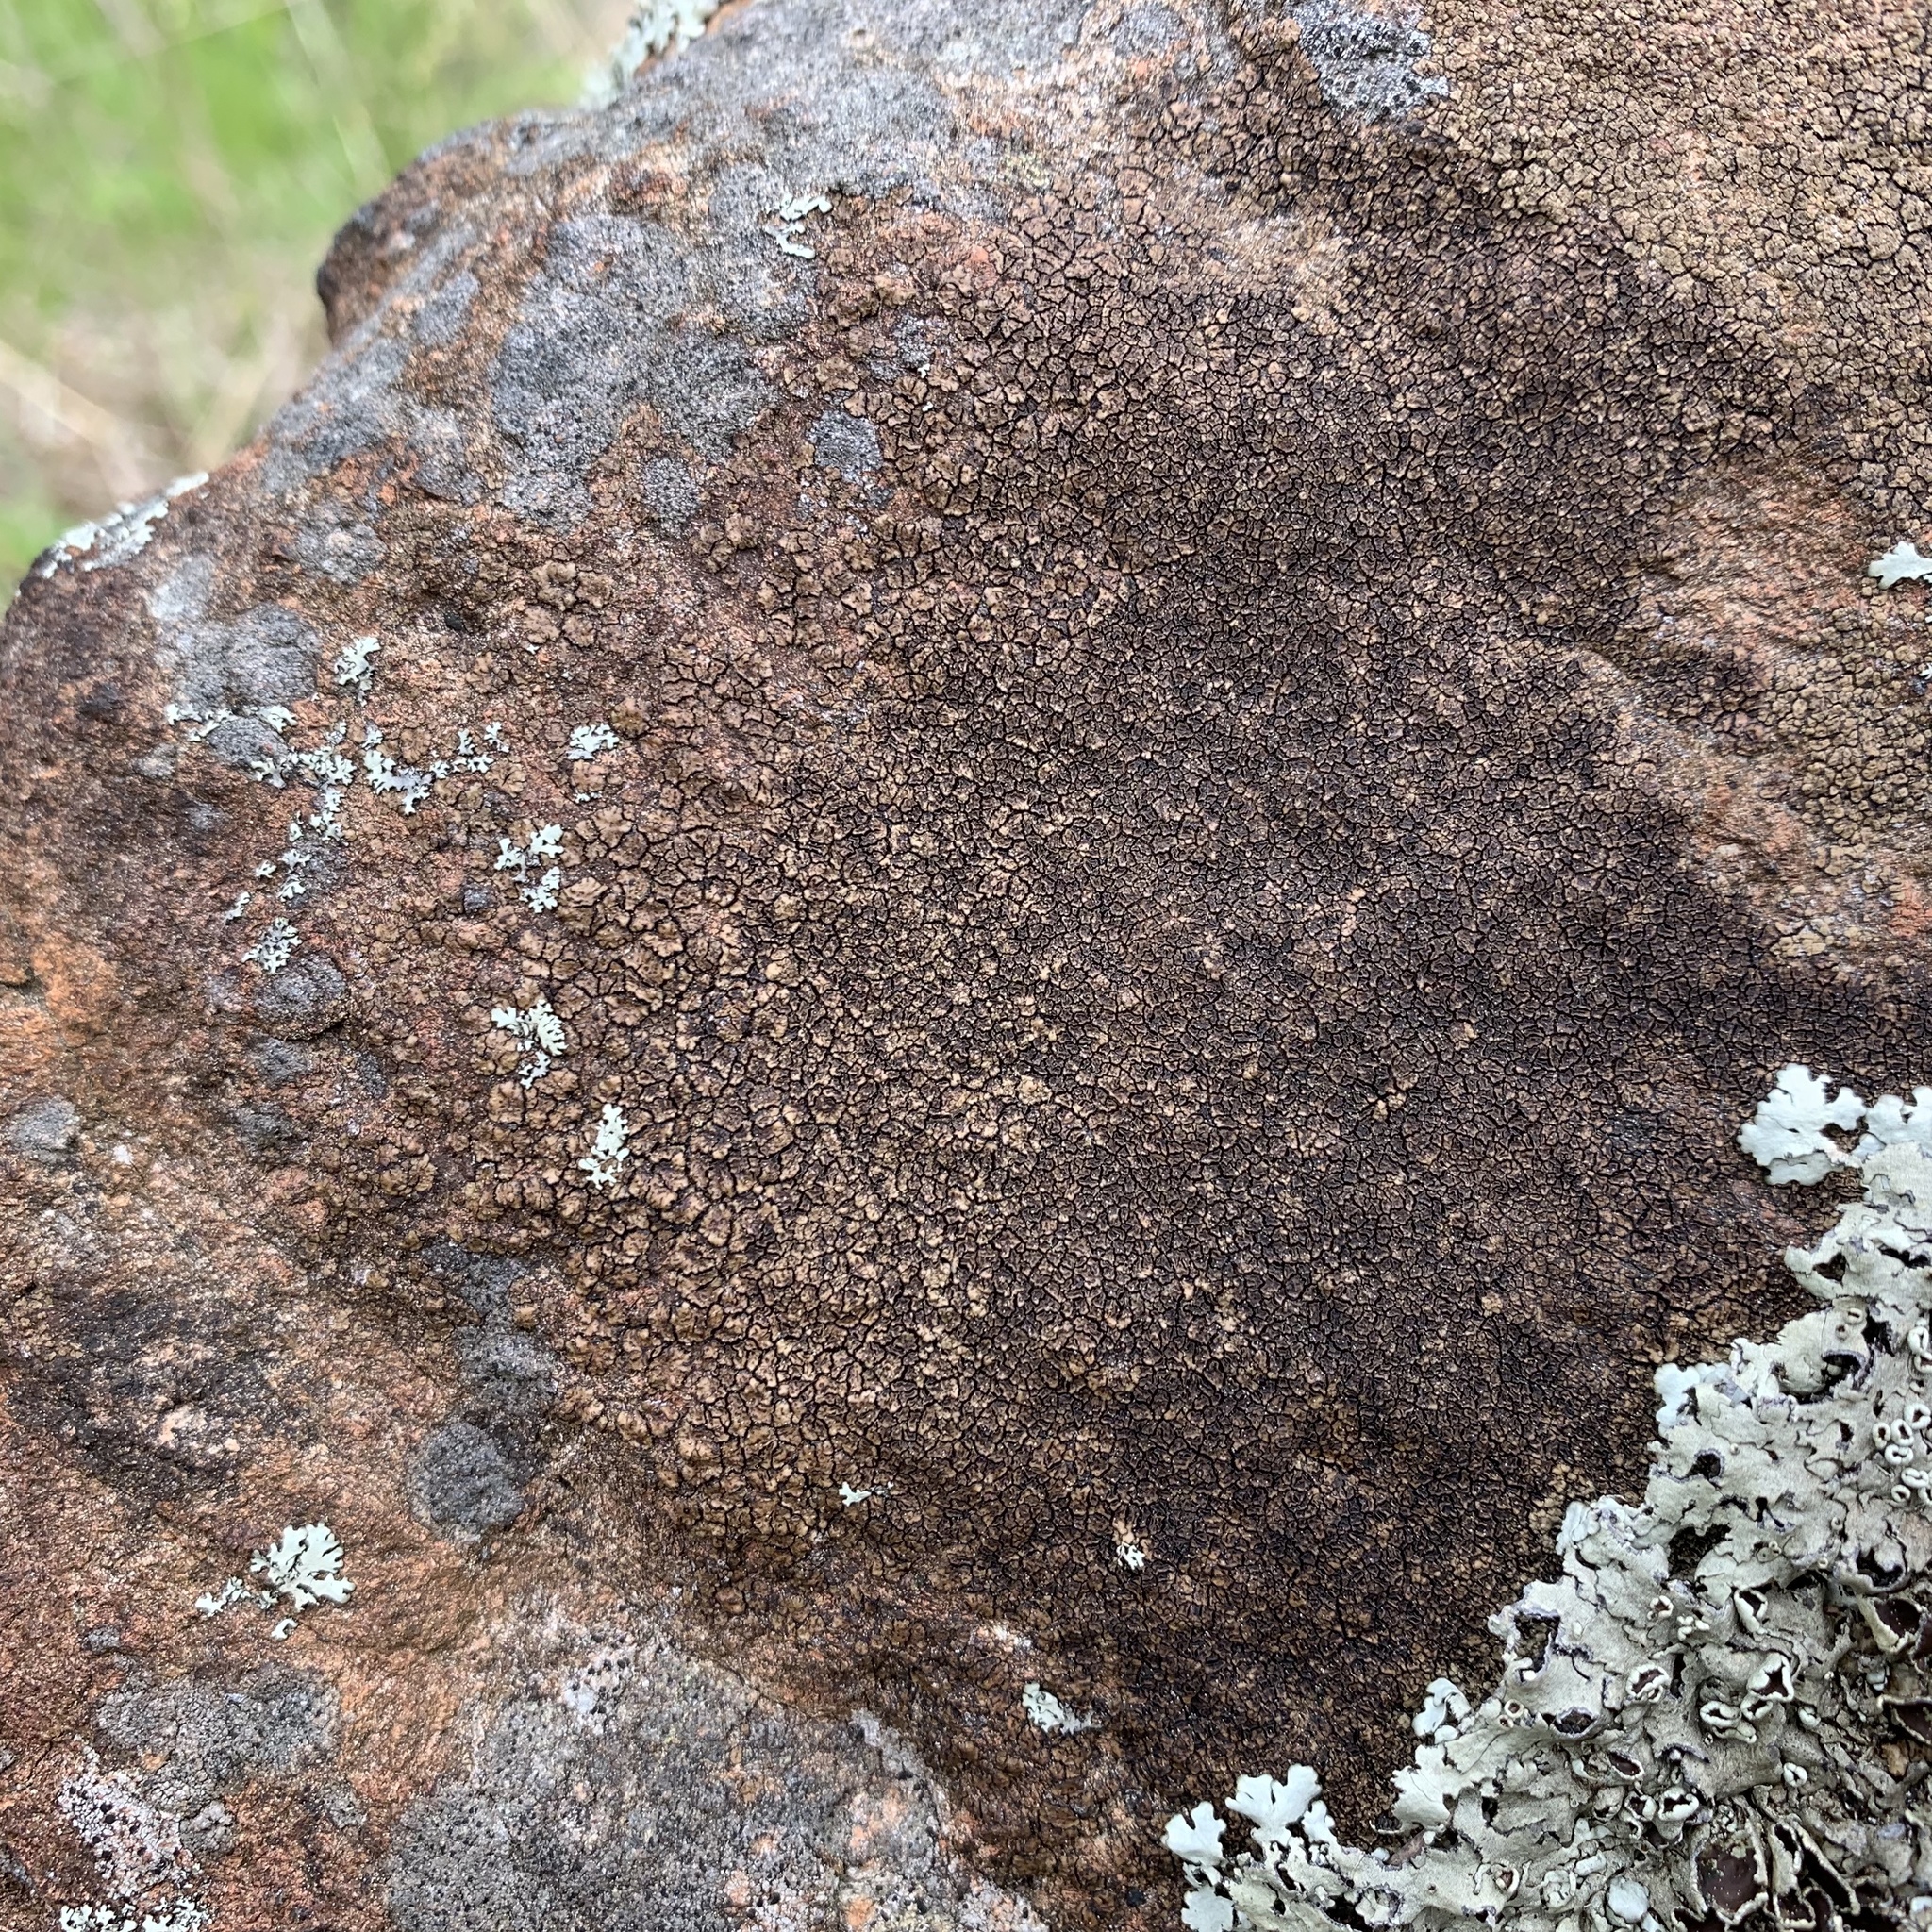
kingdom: Fungi
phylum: Ascomycota
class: Lecanoromycetes
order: Acarosporales
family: Acarosporaceae
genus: Acarospora
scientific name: Acarospora fuscata
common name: Brown cobblestone lichen
